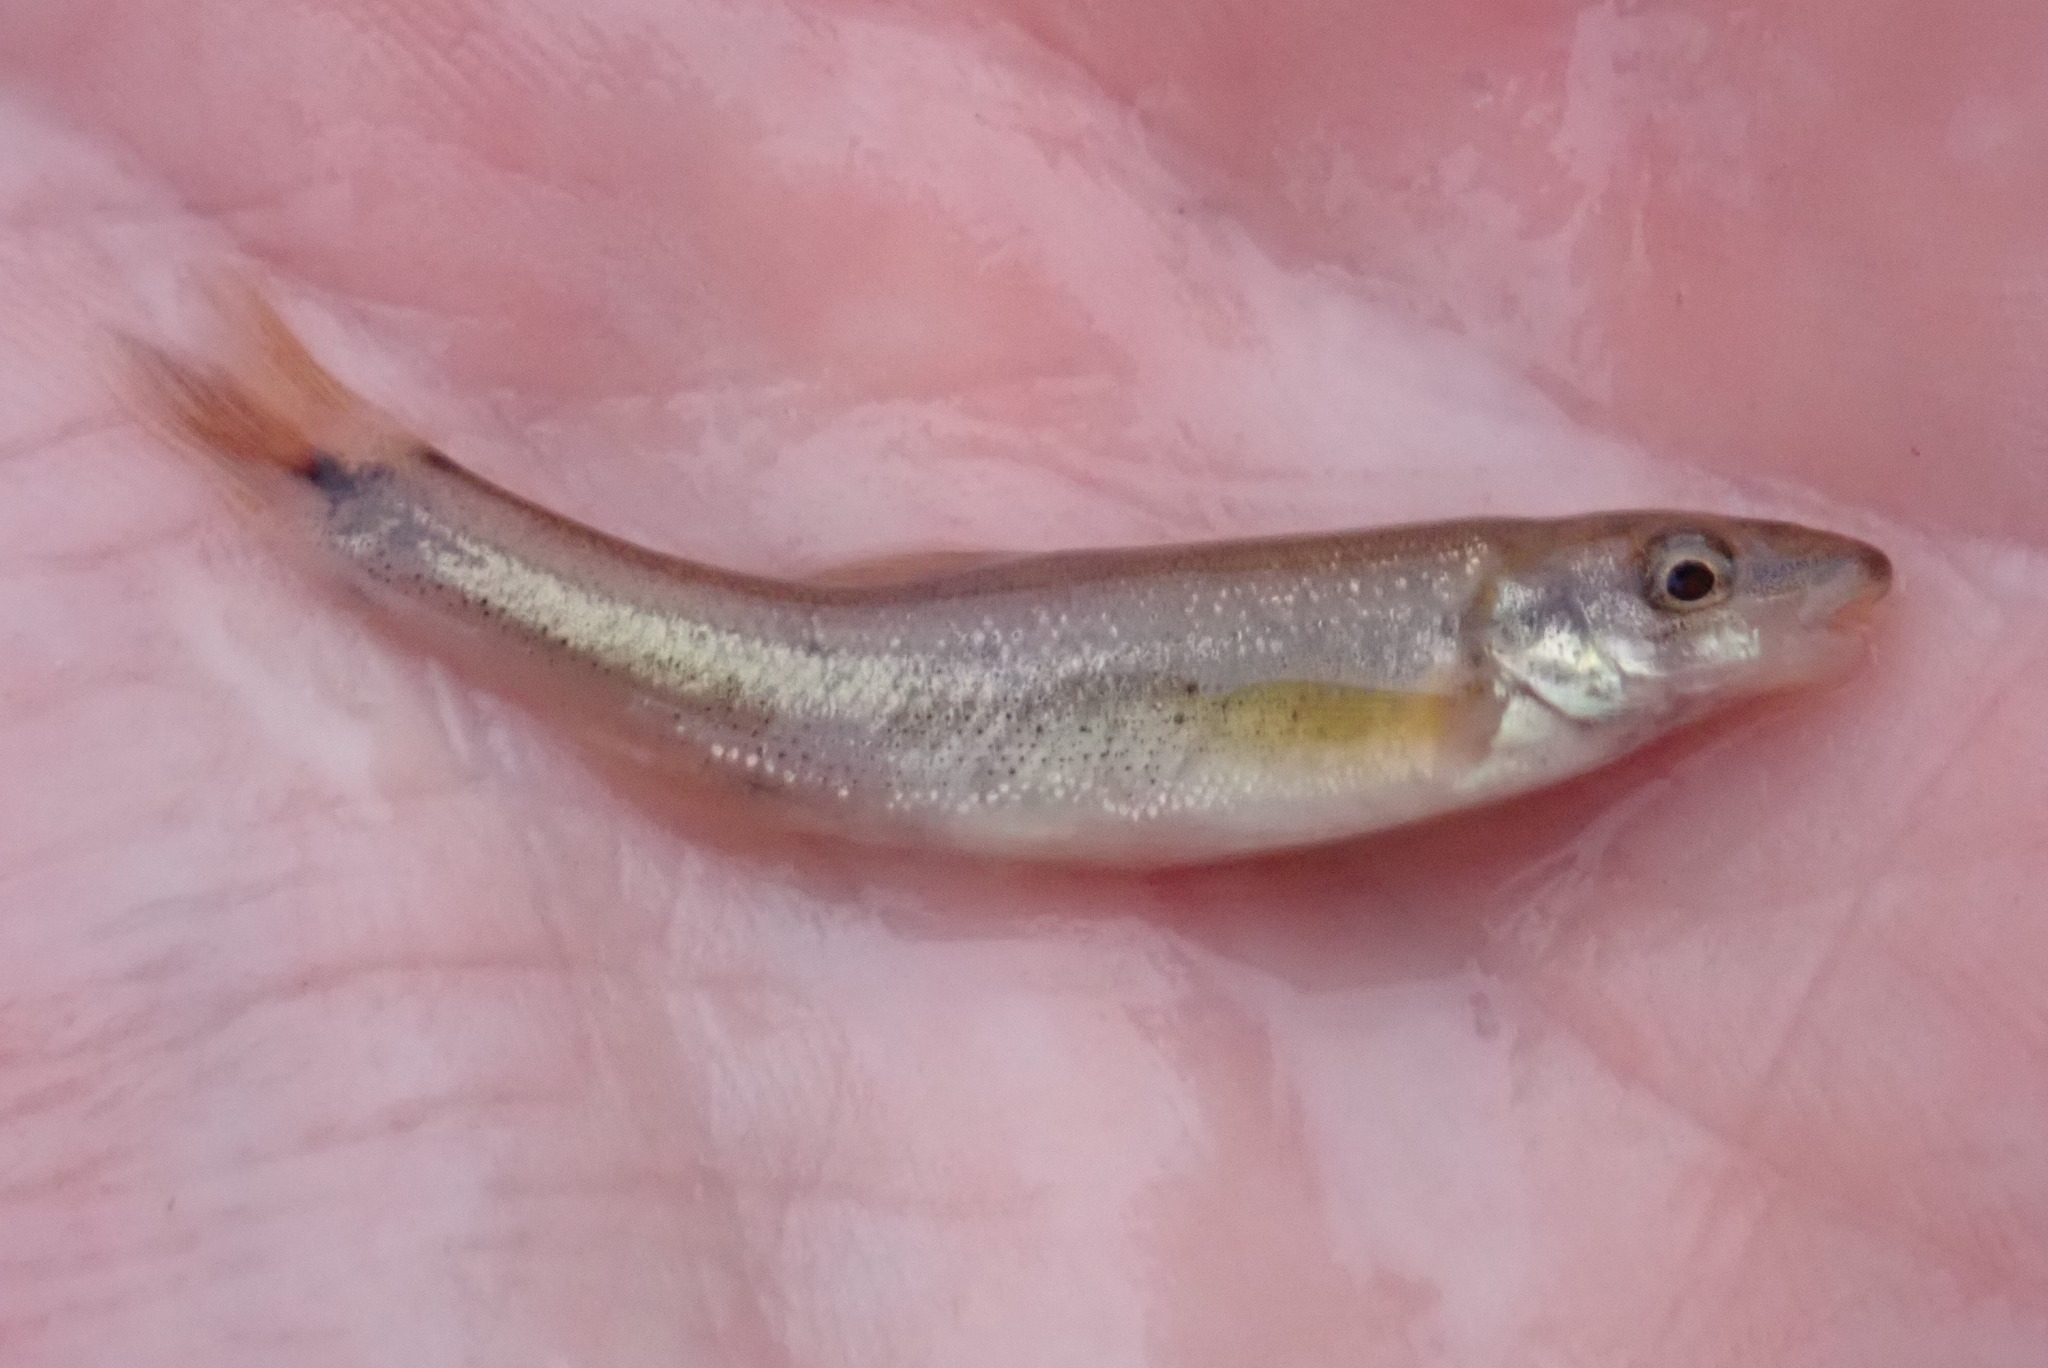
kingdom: Animalia
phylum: Chordata
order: Cypriniformes
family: Cyprinidae
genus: Rhinichthys
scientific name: Rhinichthys cataractae
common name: Longnose dace
